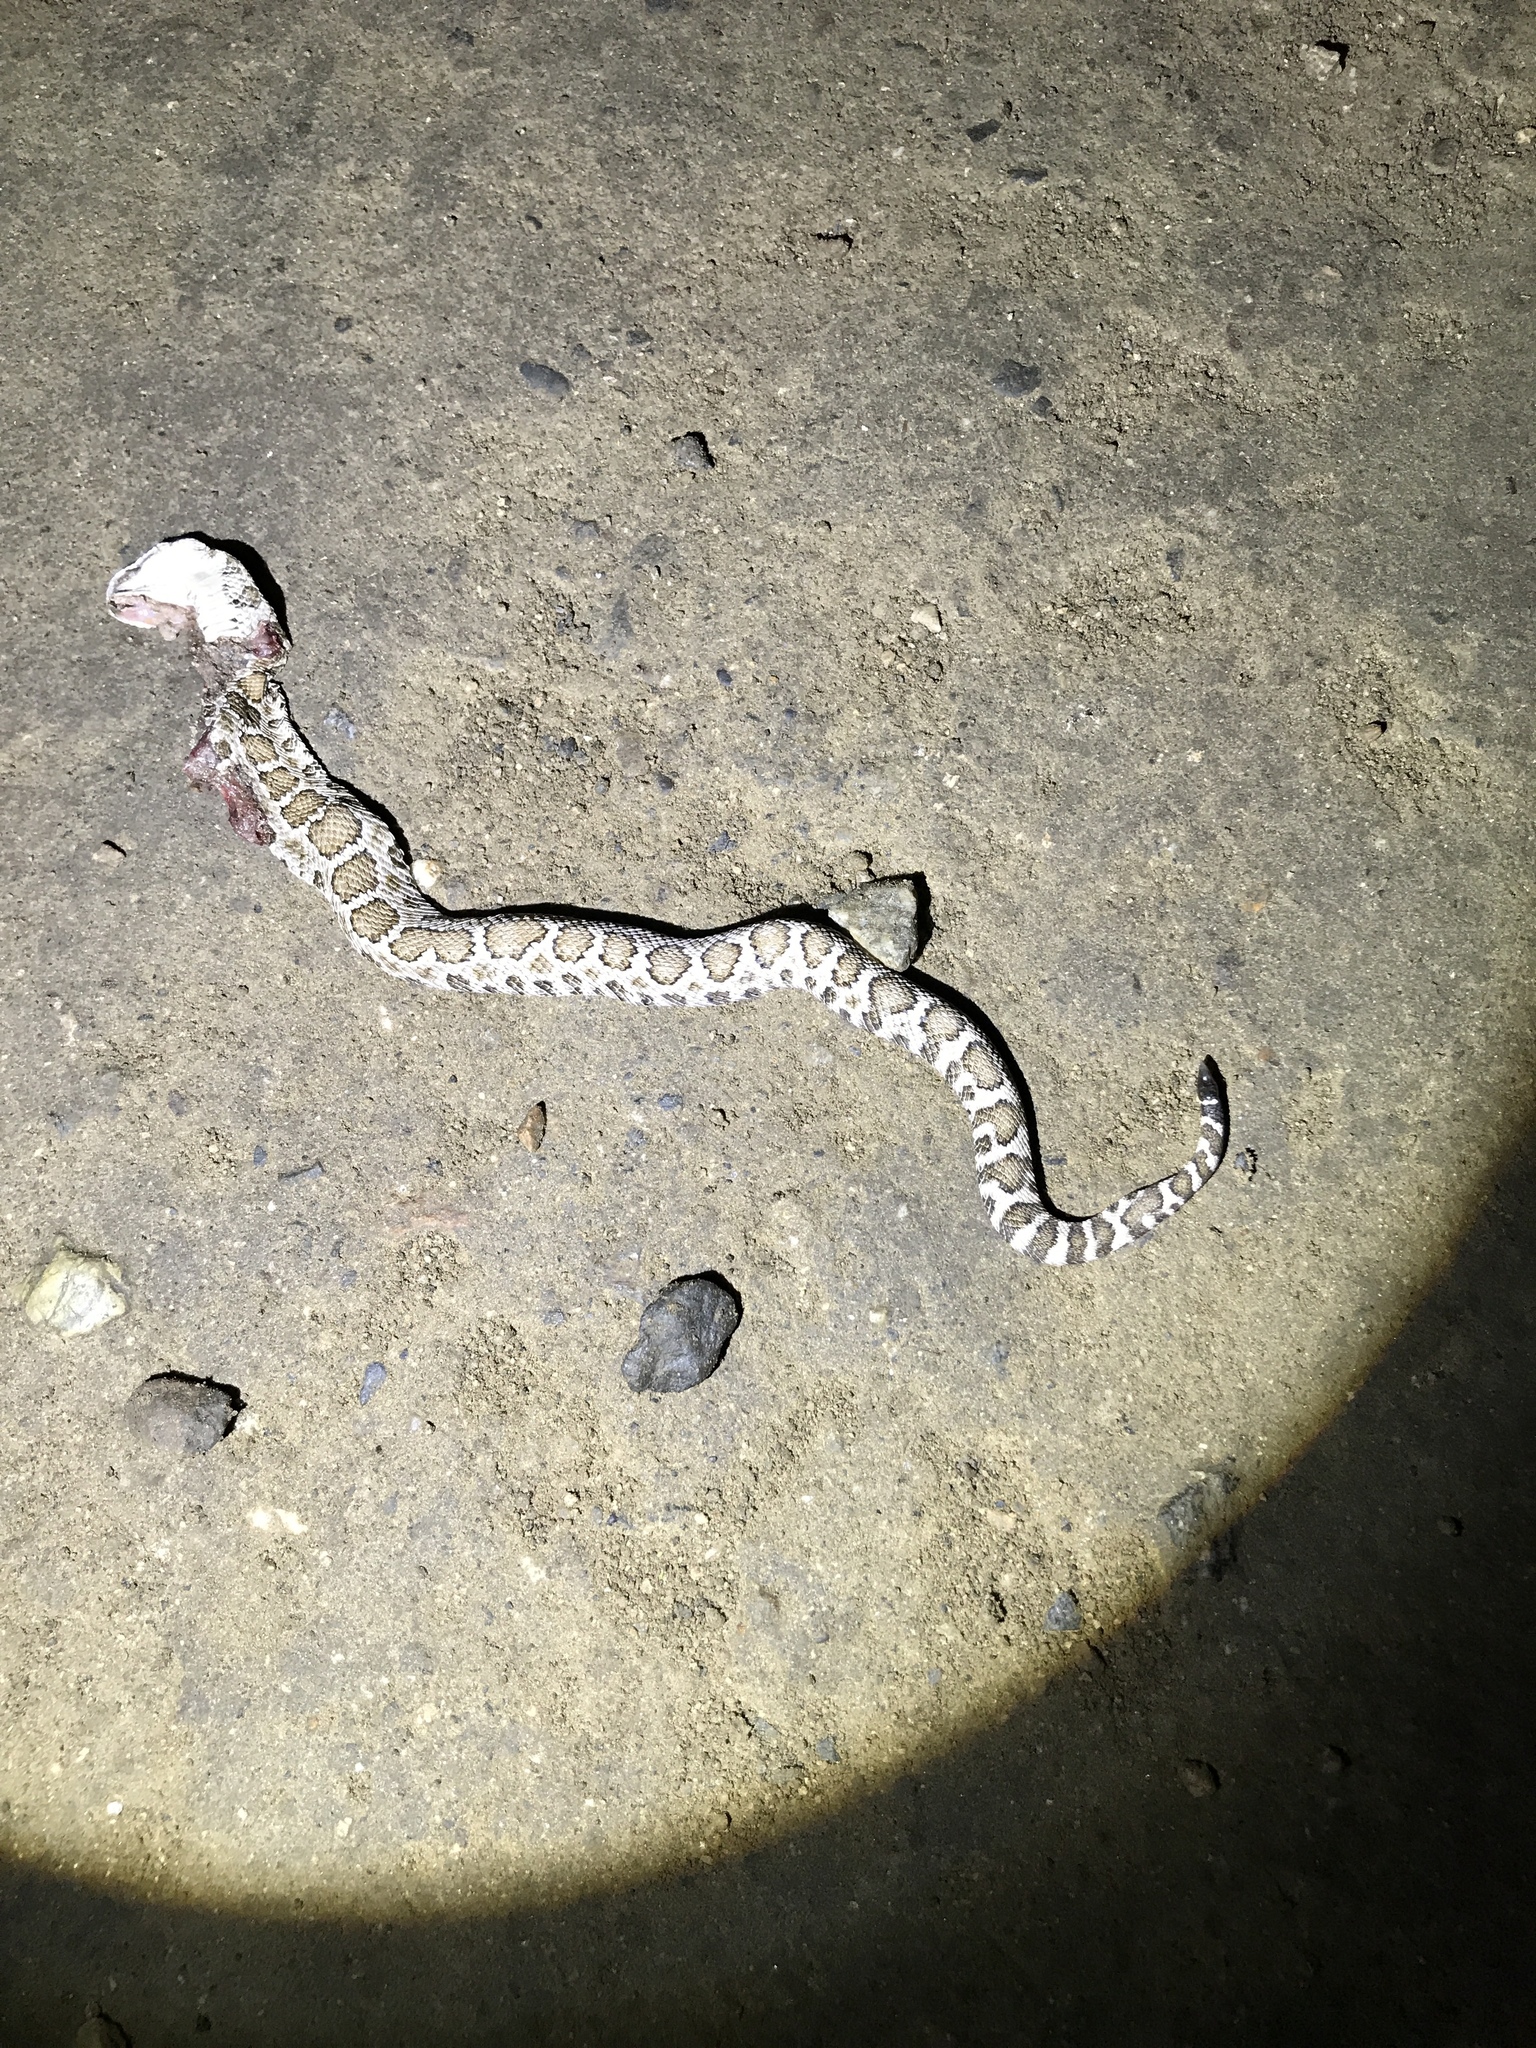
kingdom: Animalia
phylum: Chordata
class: Squamata
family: Viperidae
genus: Crotalus
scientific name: Crotalus oreganus
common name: Abyssus
